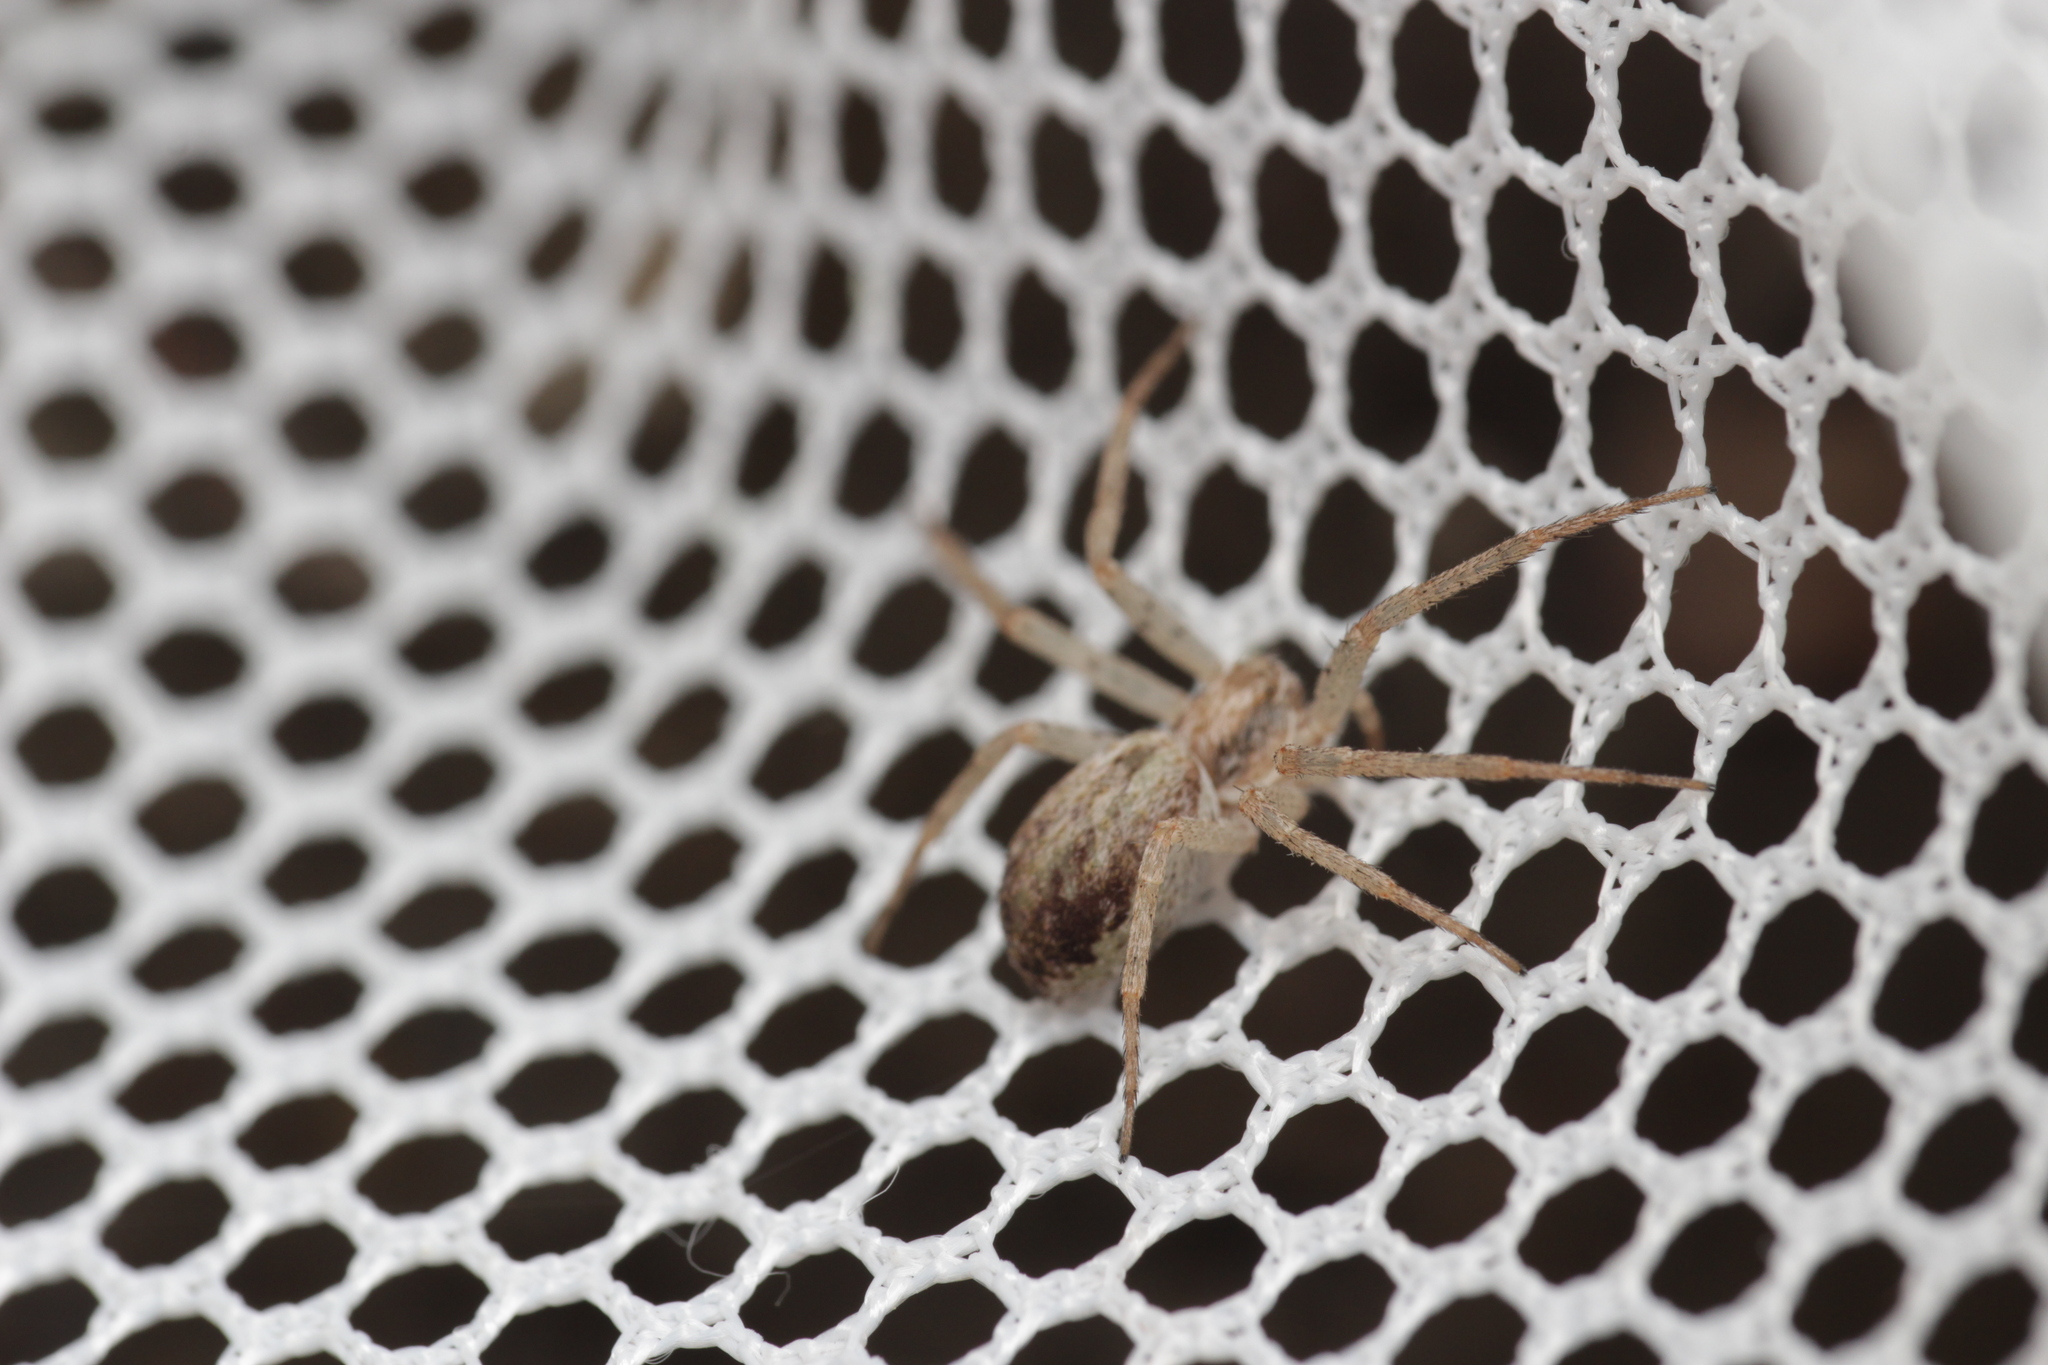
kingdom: Animalia
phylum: Arthropoda
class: Arachnida
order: Araneae
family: Philodromidae
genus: Philodromus
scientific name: Philodromus dispar
